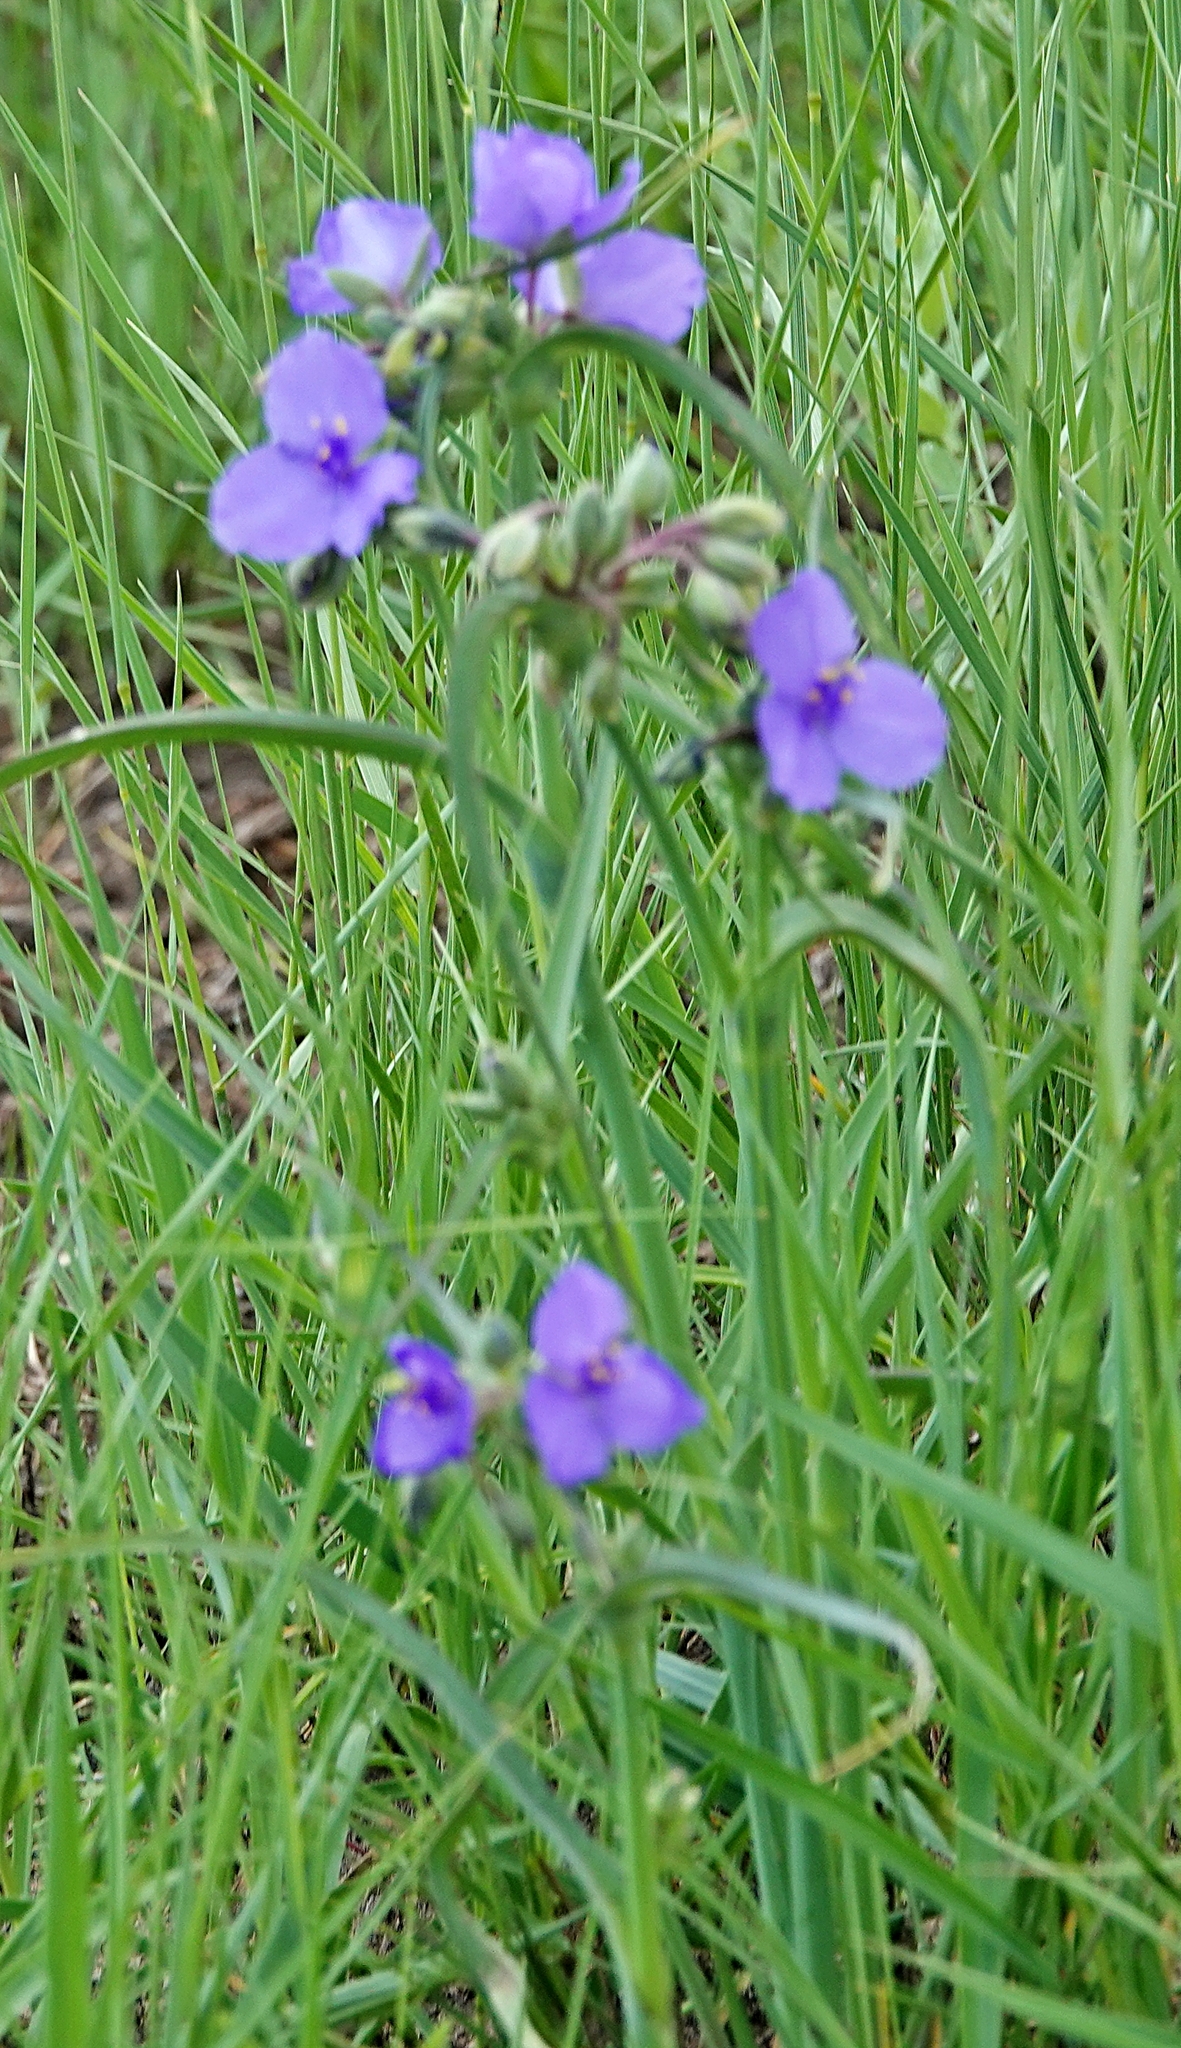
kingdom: Plantae
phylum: Tracheophyta
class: Liliopsida
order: Commelinales
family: Commelinaceae
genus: Tradescantia
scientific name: Tradescantia occidentalis
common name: Prairie spiderwort
